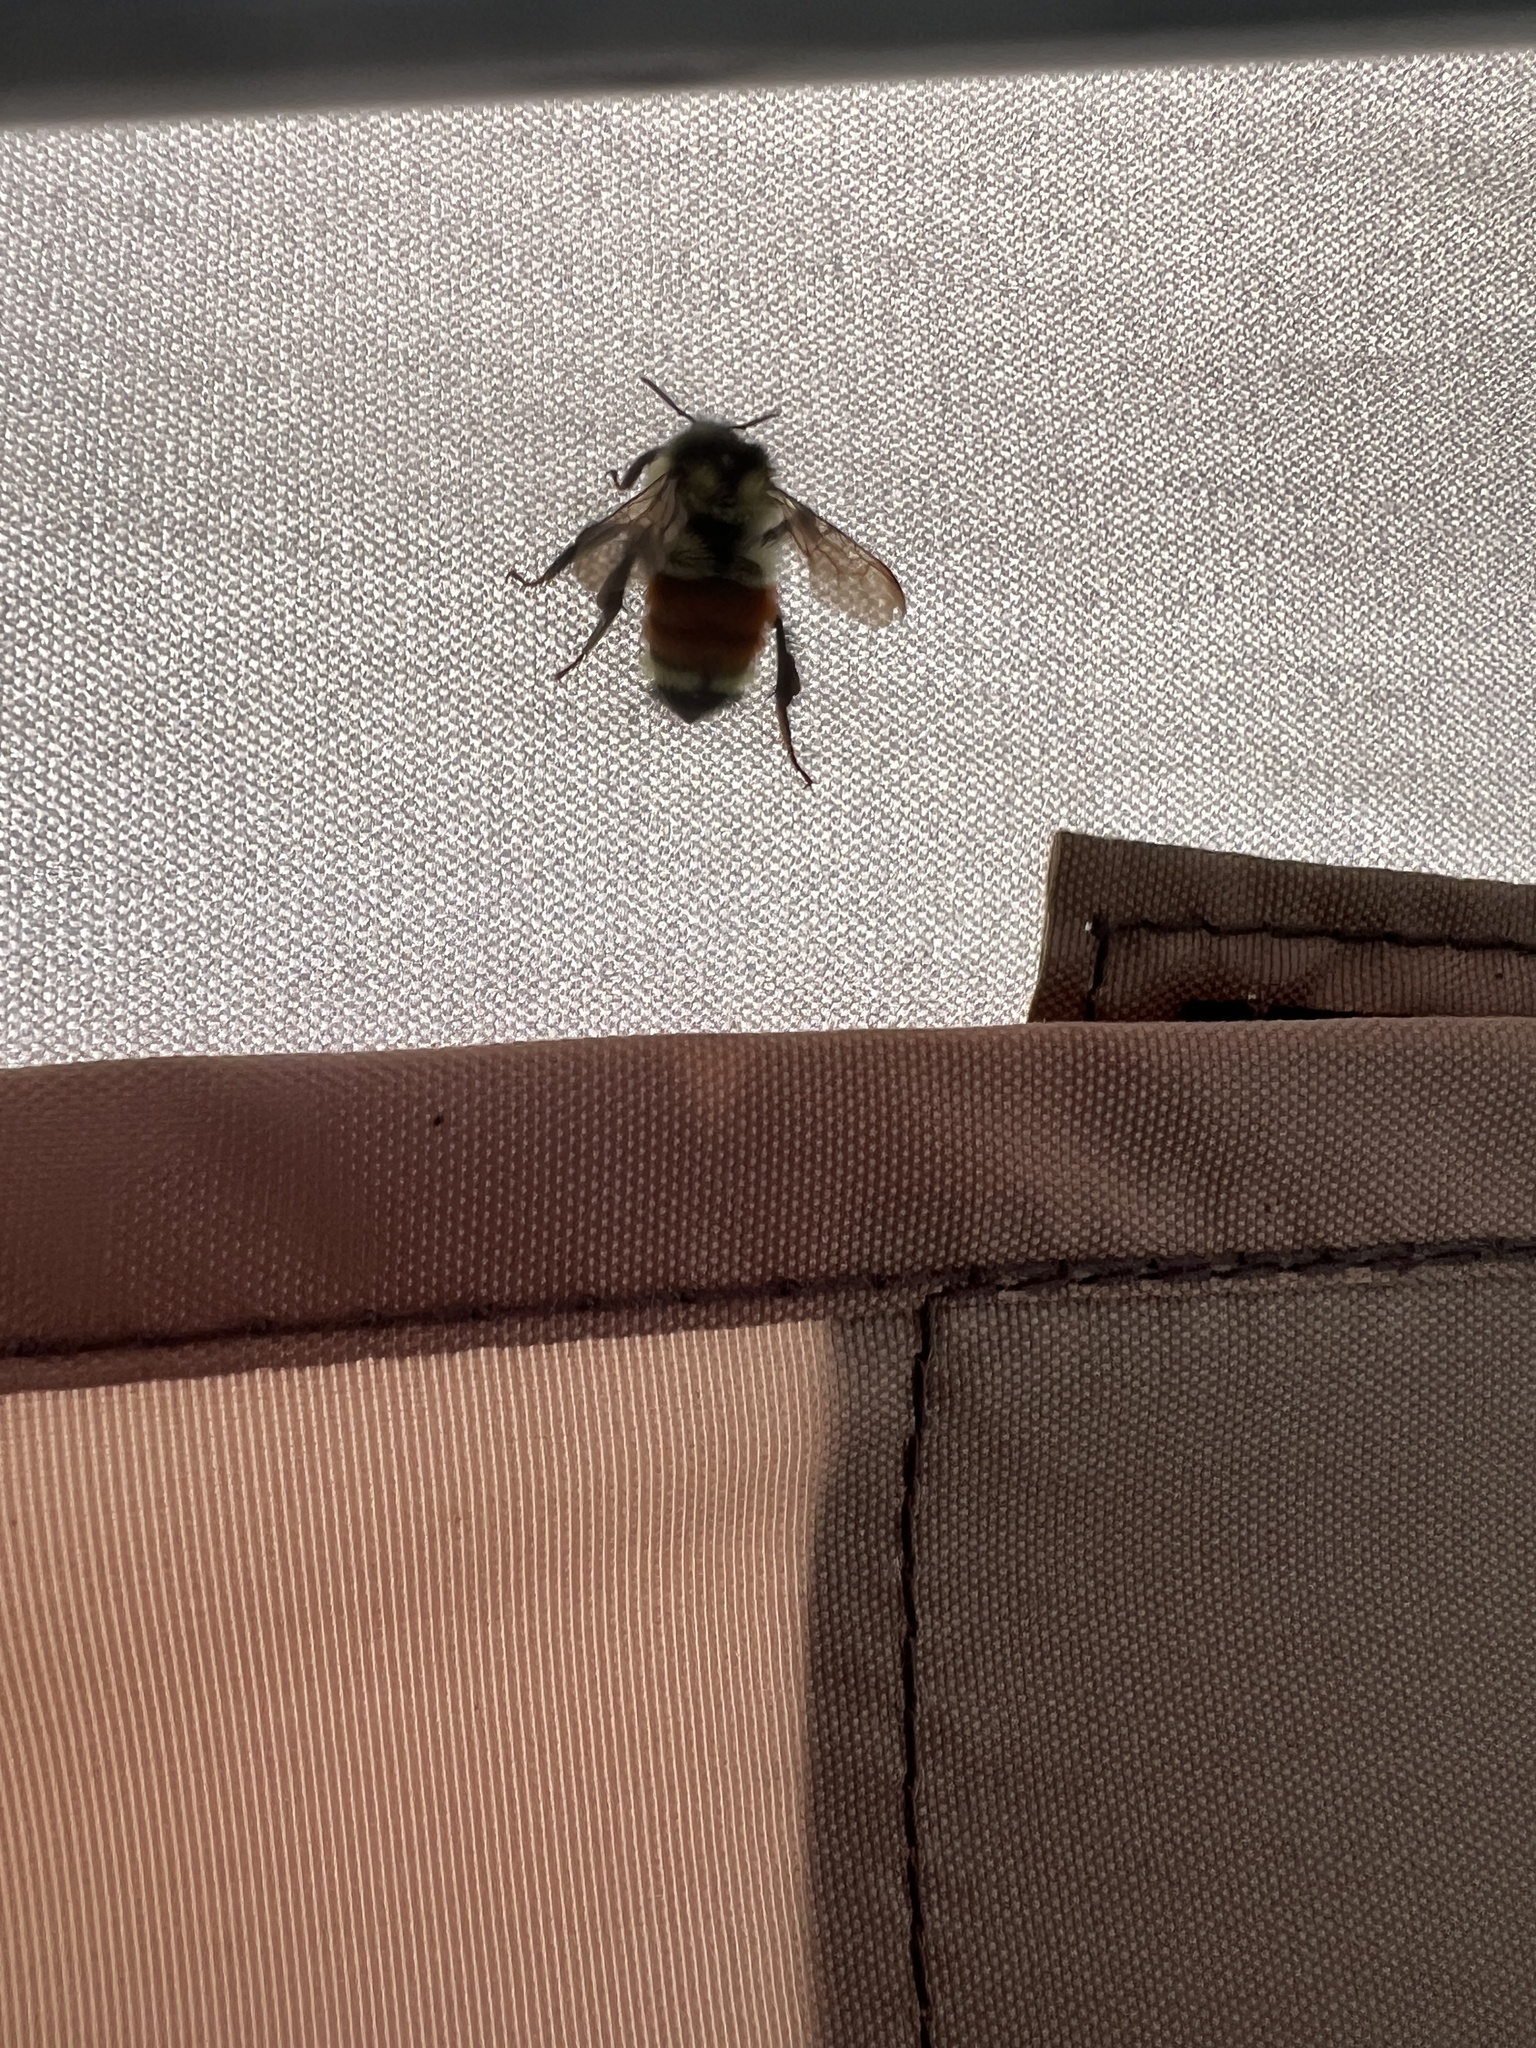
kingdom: Animalia
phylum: Arthropoda
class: Insecta
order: Hymenoptera
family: Apidae
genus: Bombus
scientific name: Bombus ternarius
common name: Tri-colored bumble bee
